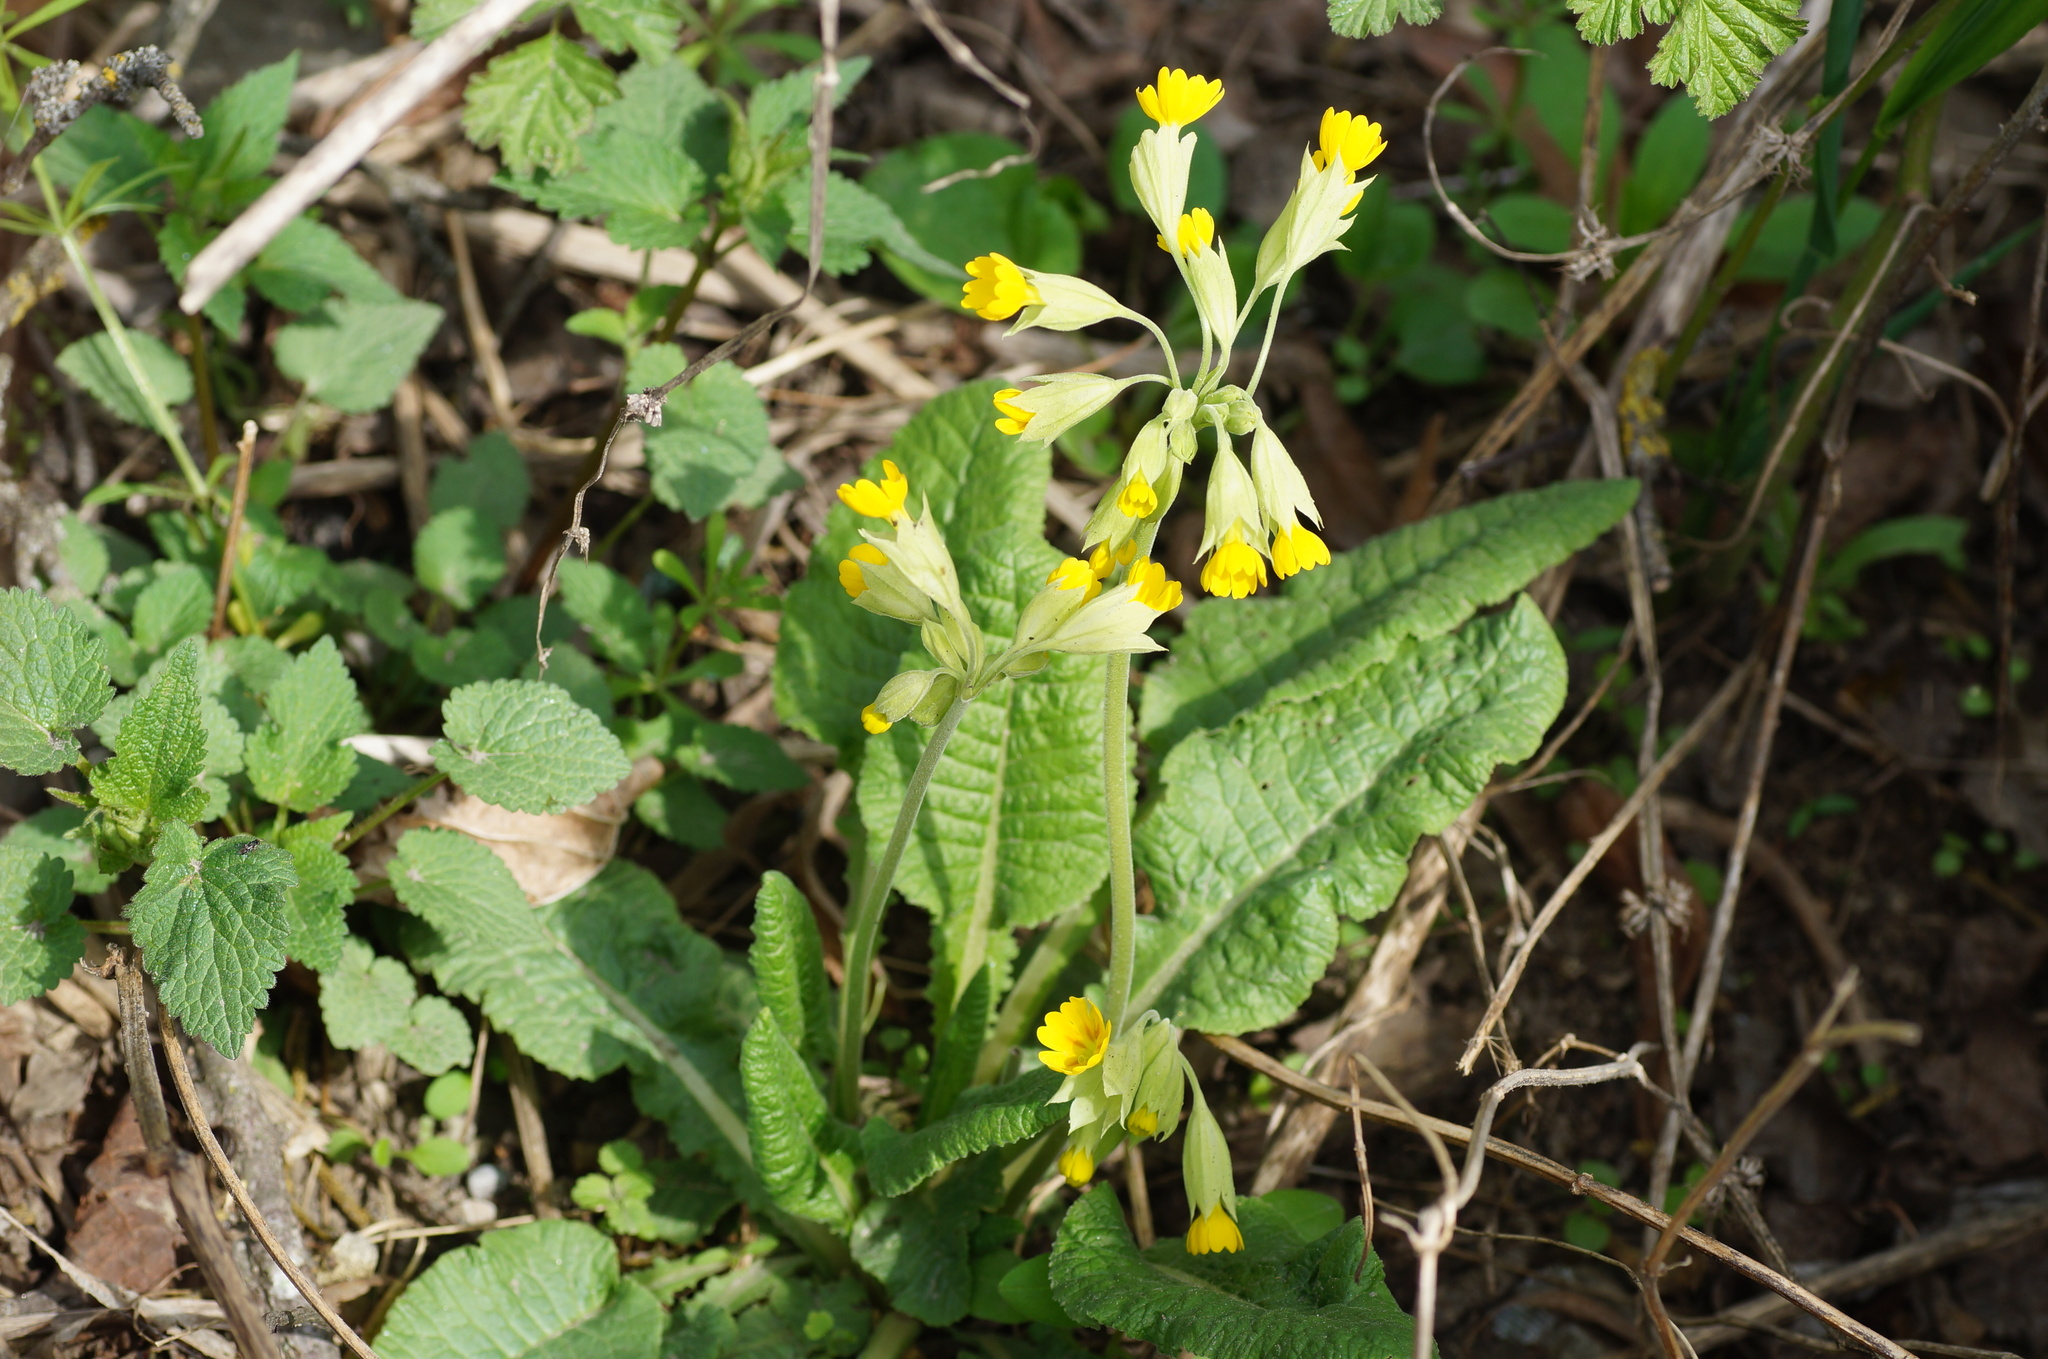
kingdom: Plantae
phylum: Tracheophyta
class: Magnoliopsida
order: Ericales
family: Primulaceae
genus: Primula
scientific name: Primula veris
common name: Cowslip
